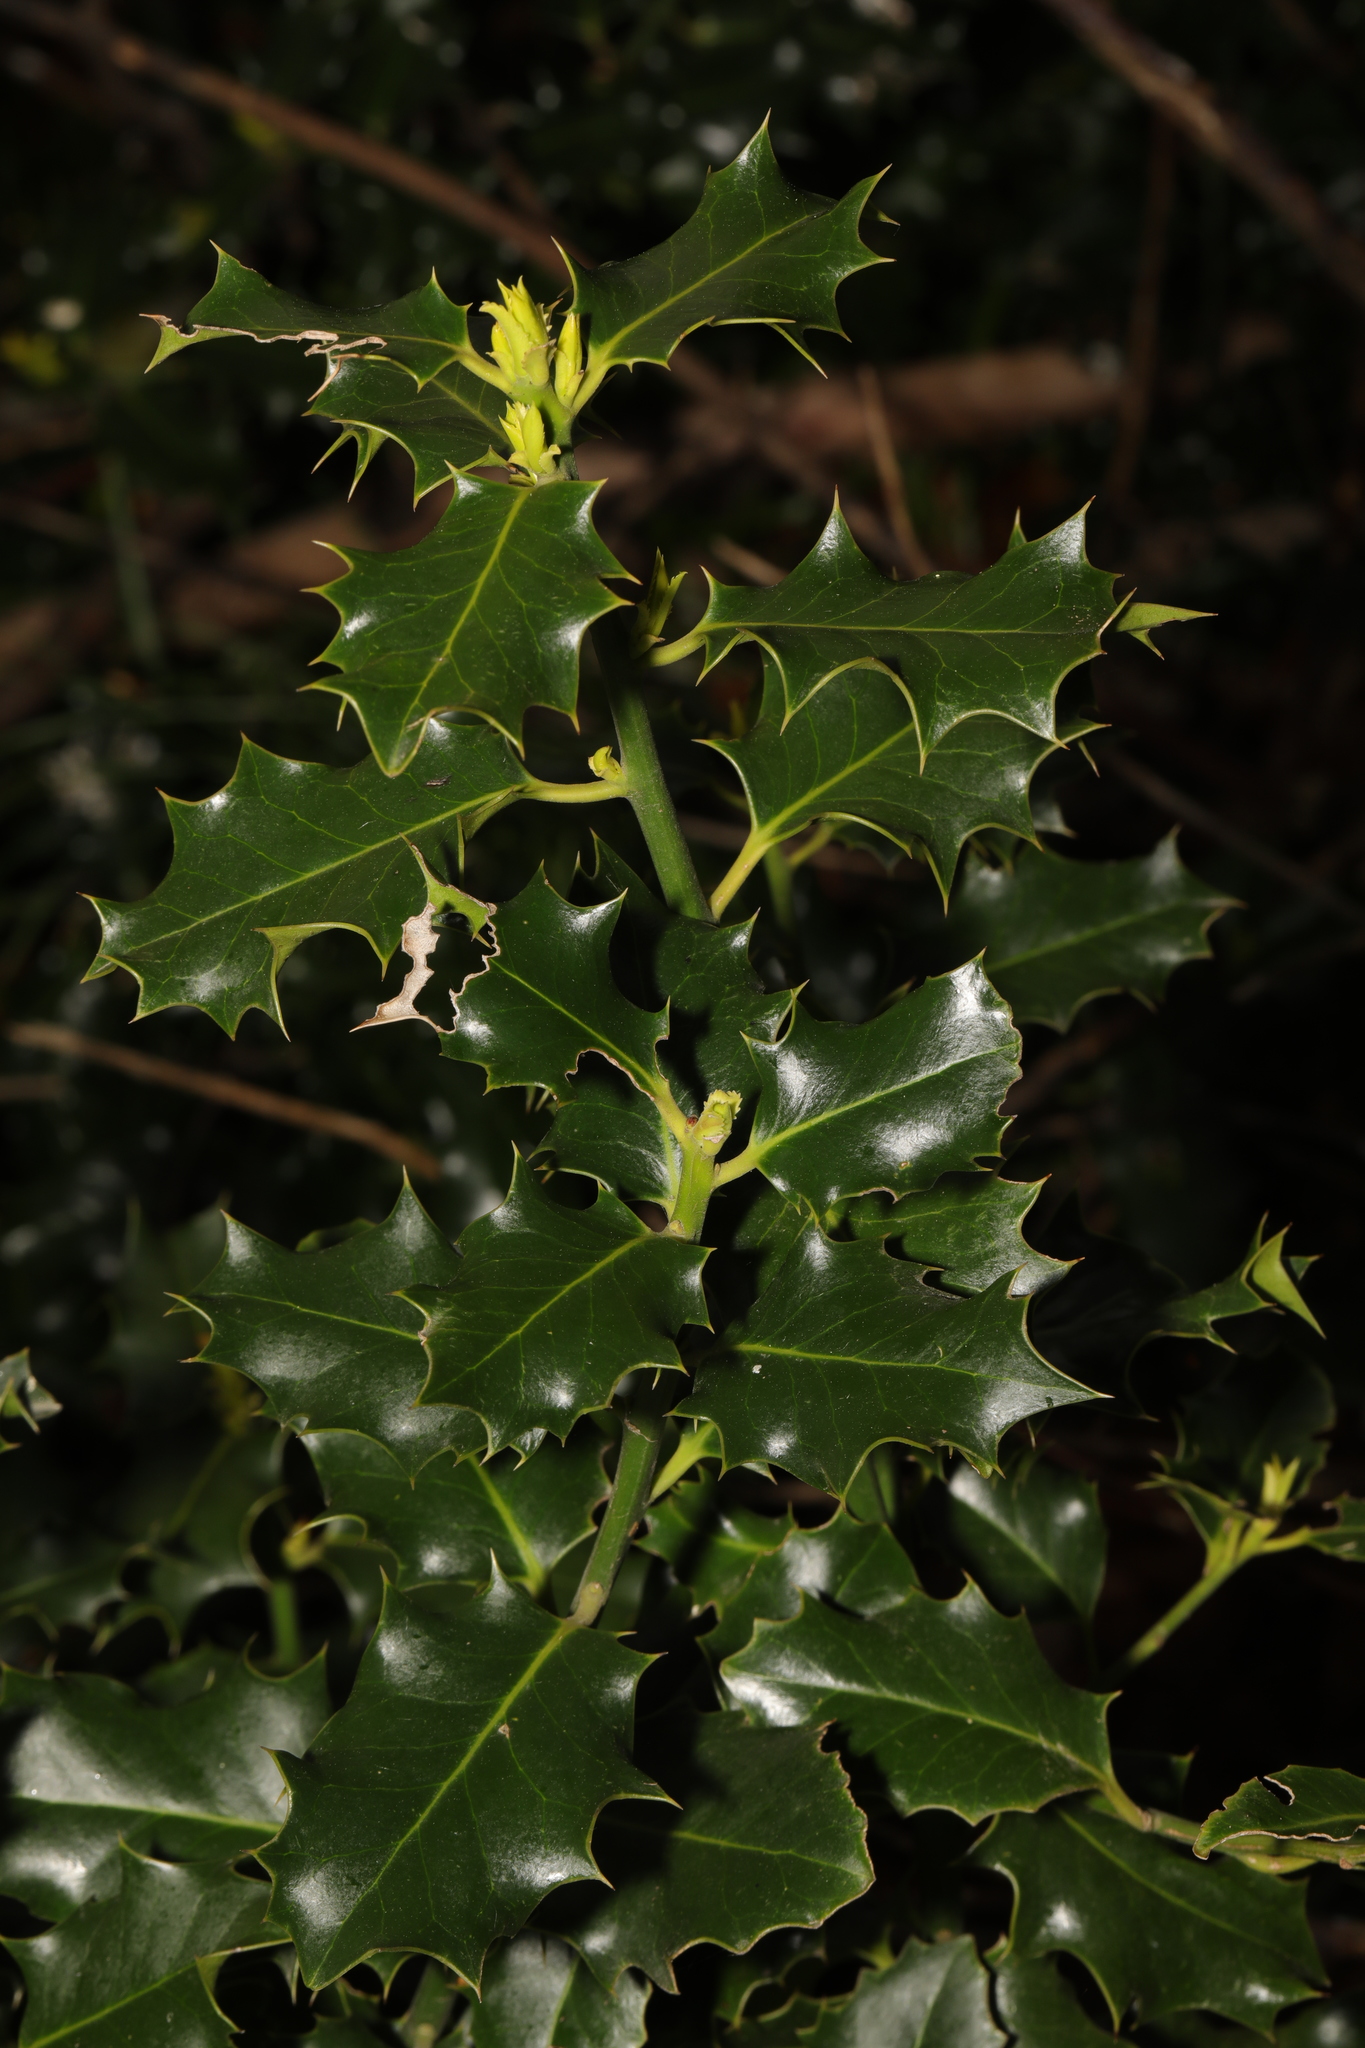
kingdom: Plantae
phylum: Tracheophyta
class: Magnoliopsida
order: Aquifoliales
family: Aquifoliaceae
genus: Ilex
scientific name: Ilex aquifolium
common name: English holly
